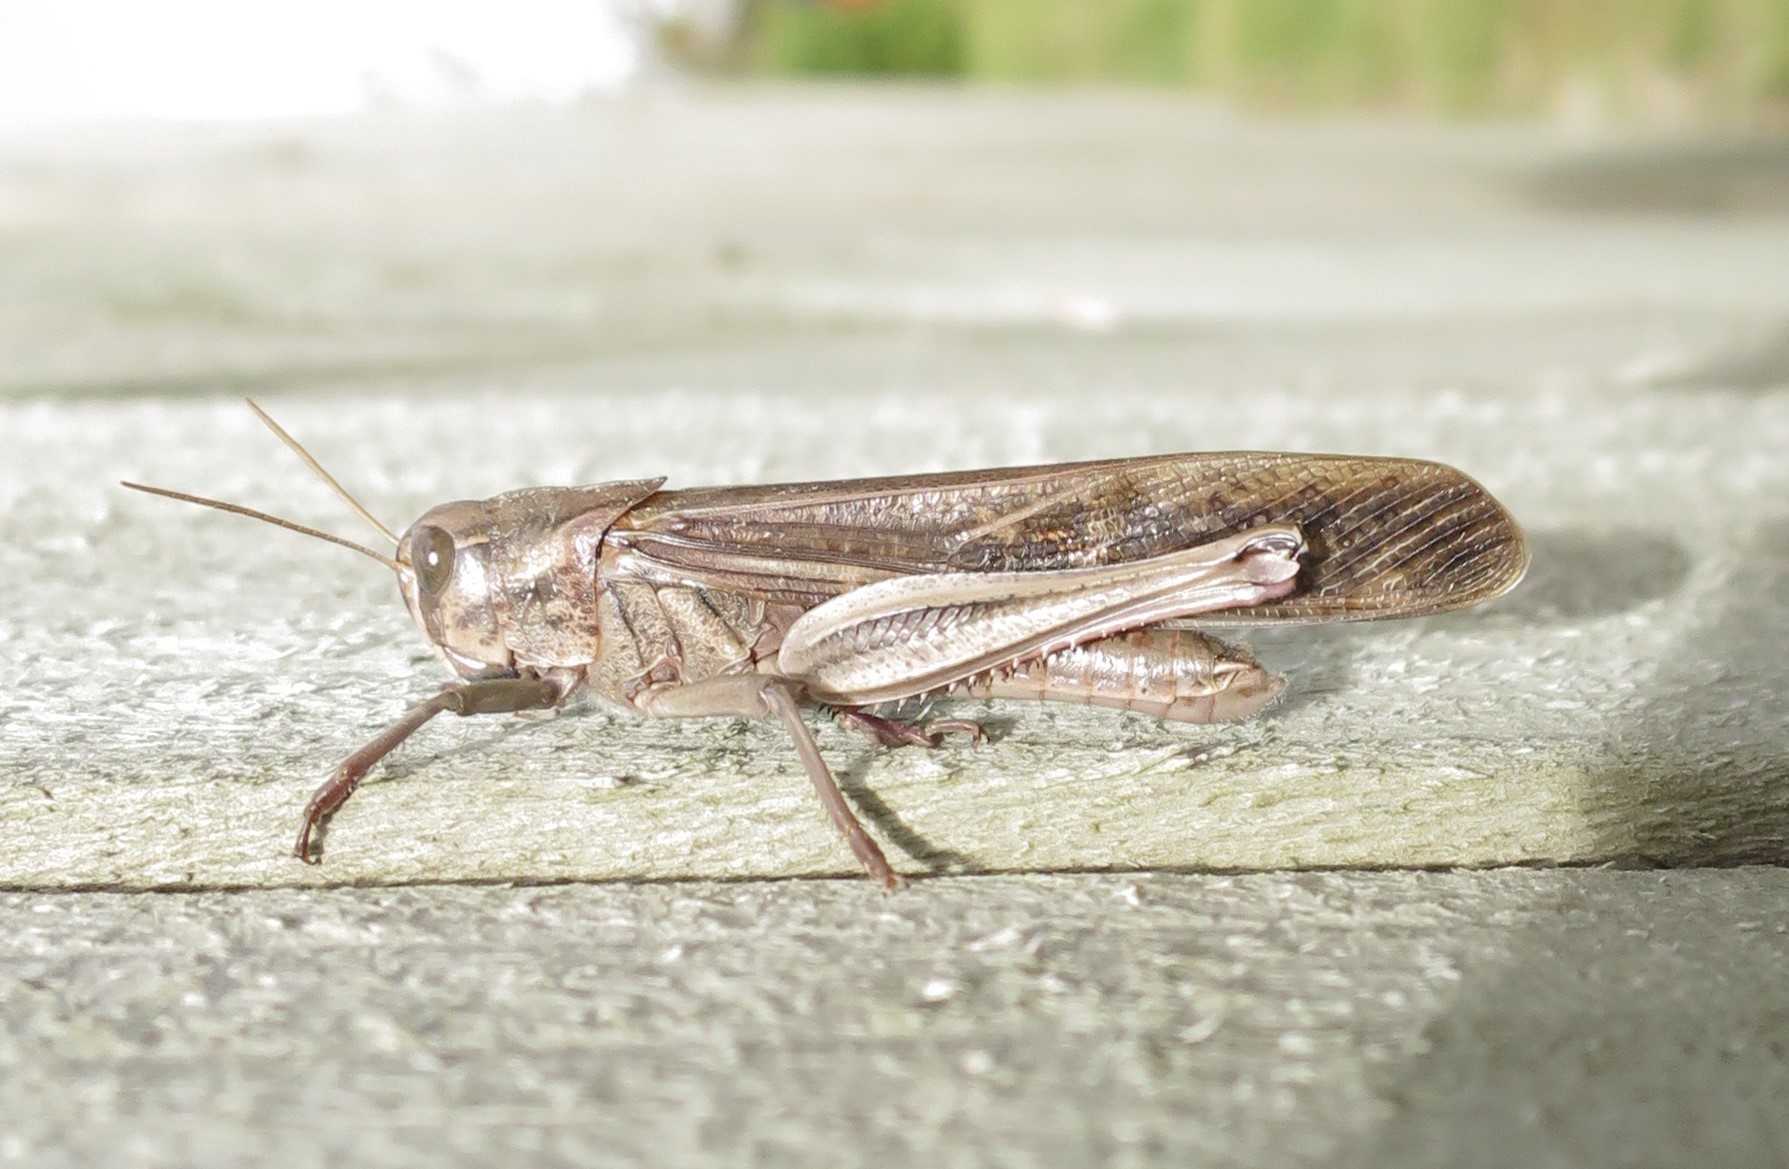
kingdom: Animalia
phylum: Arthropoda
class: Insecta
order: Orthoptera
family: Acrididae
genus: Locusta
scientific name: Locusta migratoria
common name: Migratory locust
